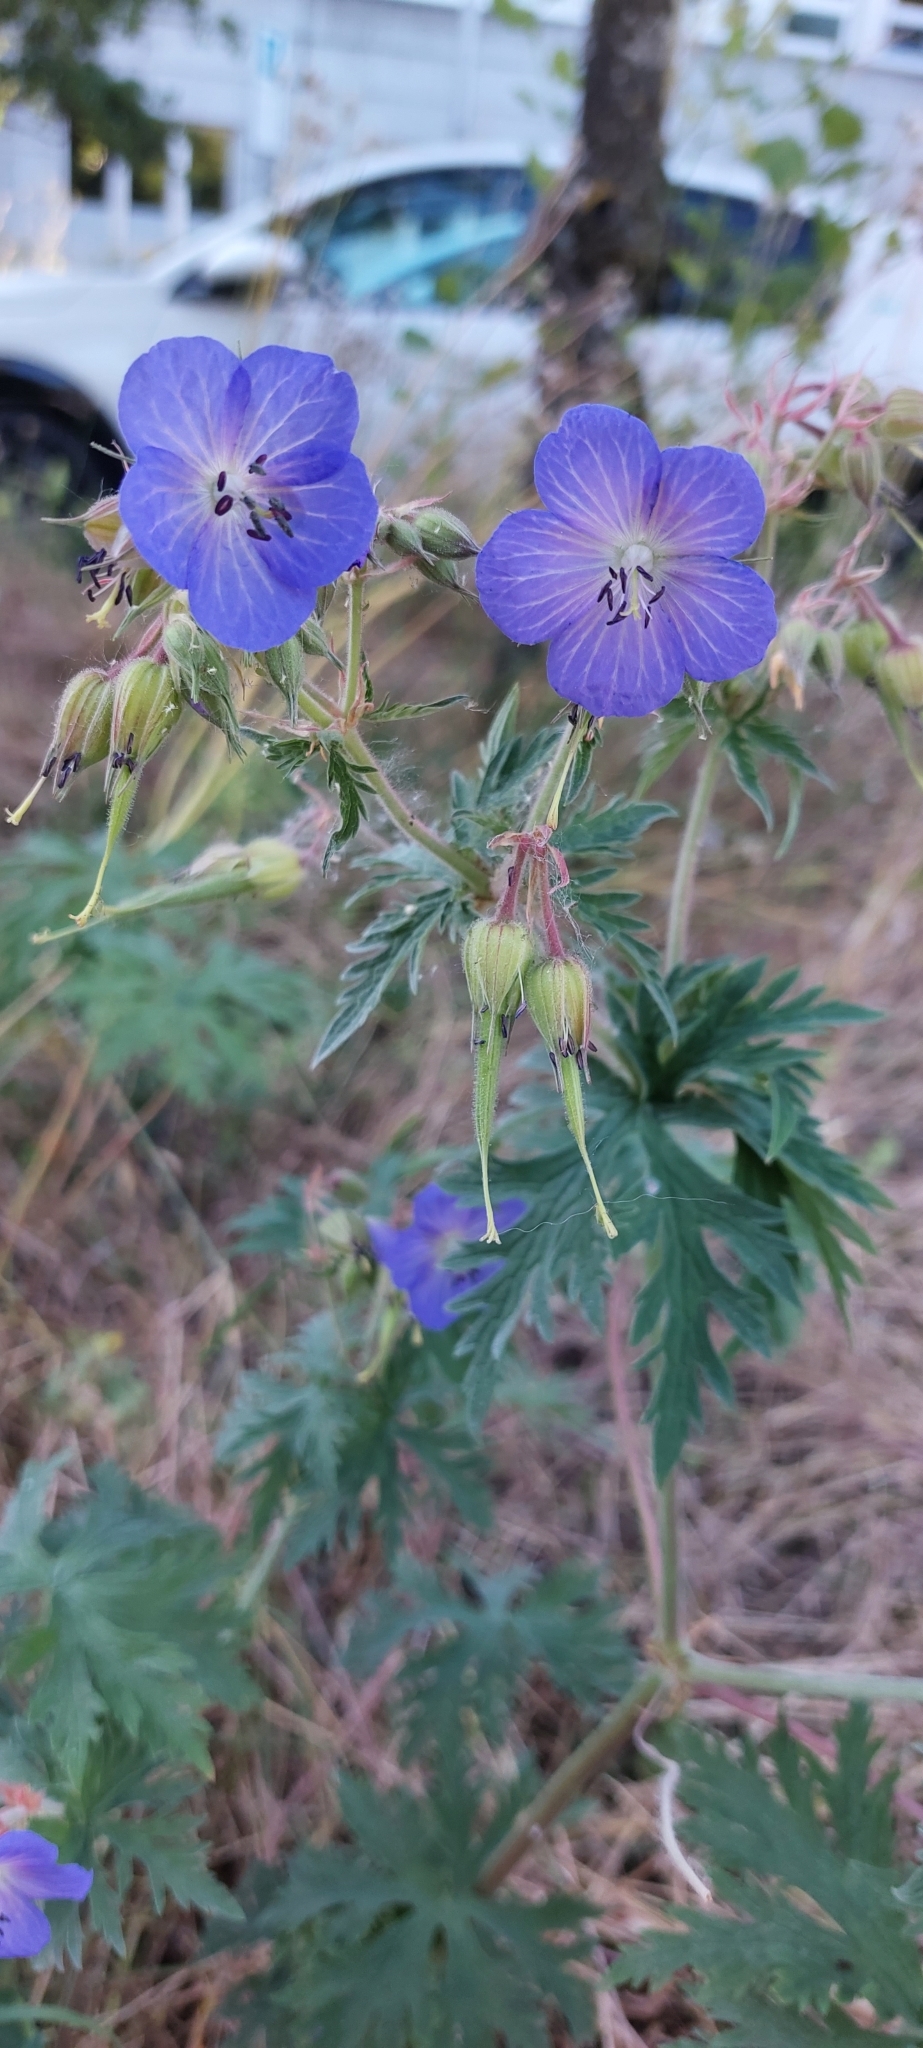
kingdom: Plantae
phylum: Tracheophyta
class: Magnoliopsida
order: Geraniales
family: Geraniaceae
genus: Geranium
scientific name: Geranium pratense
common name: Meadow crane's-bill
